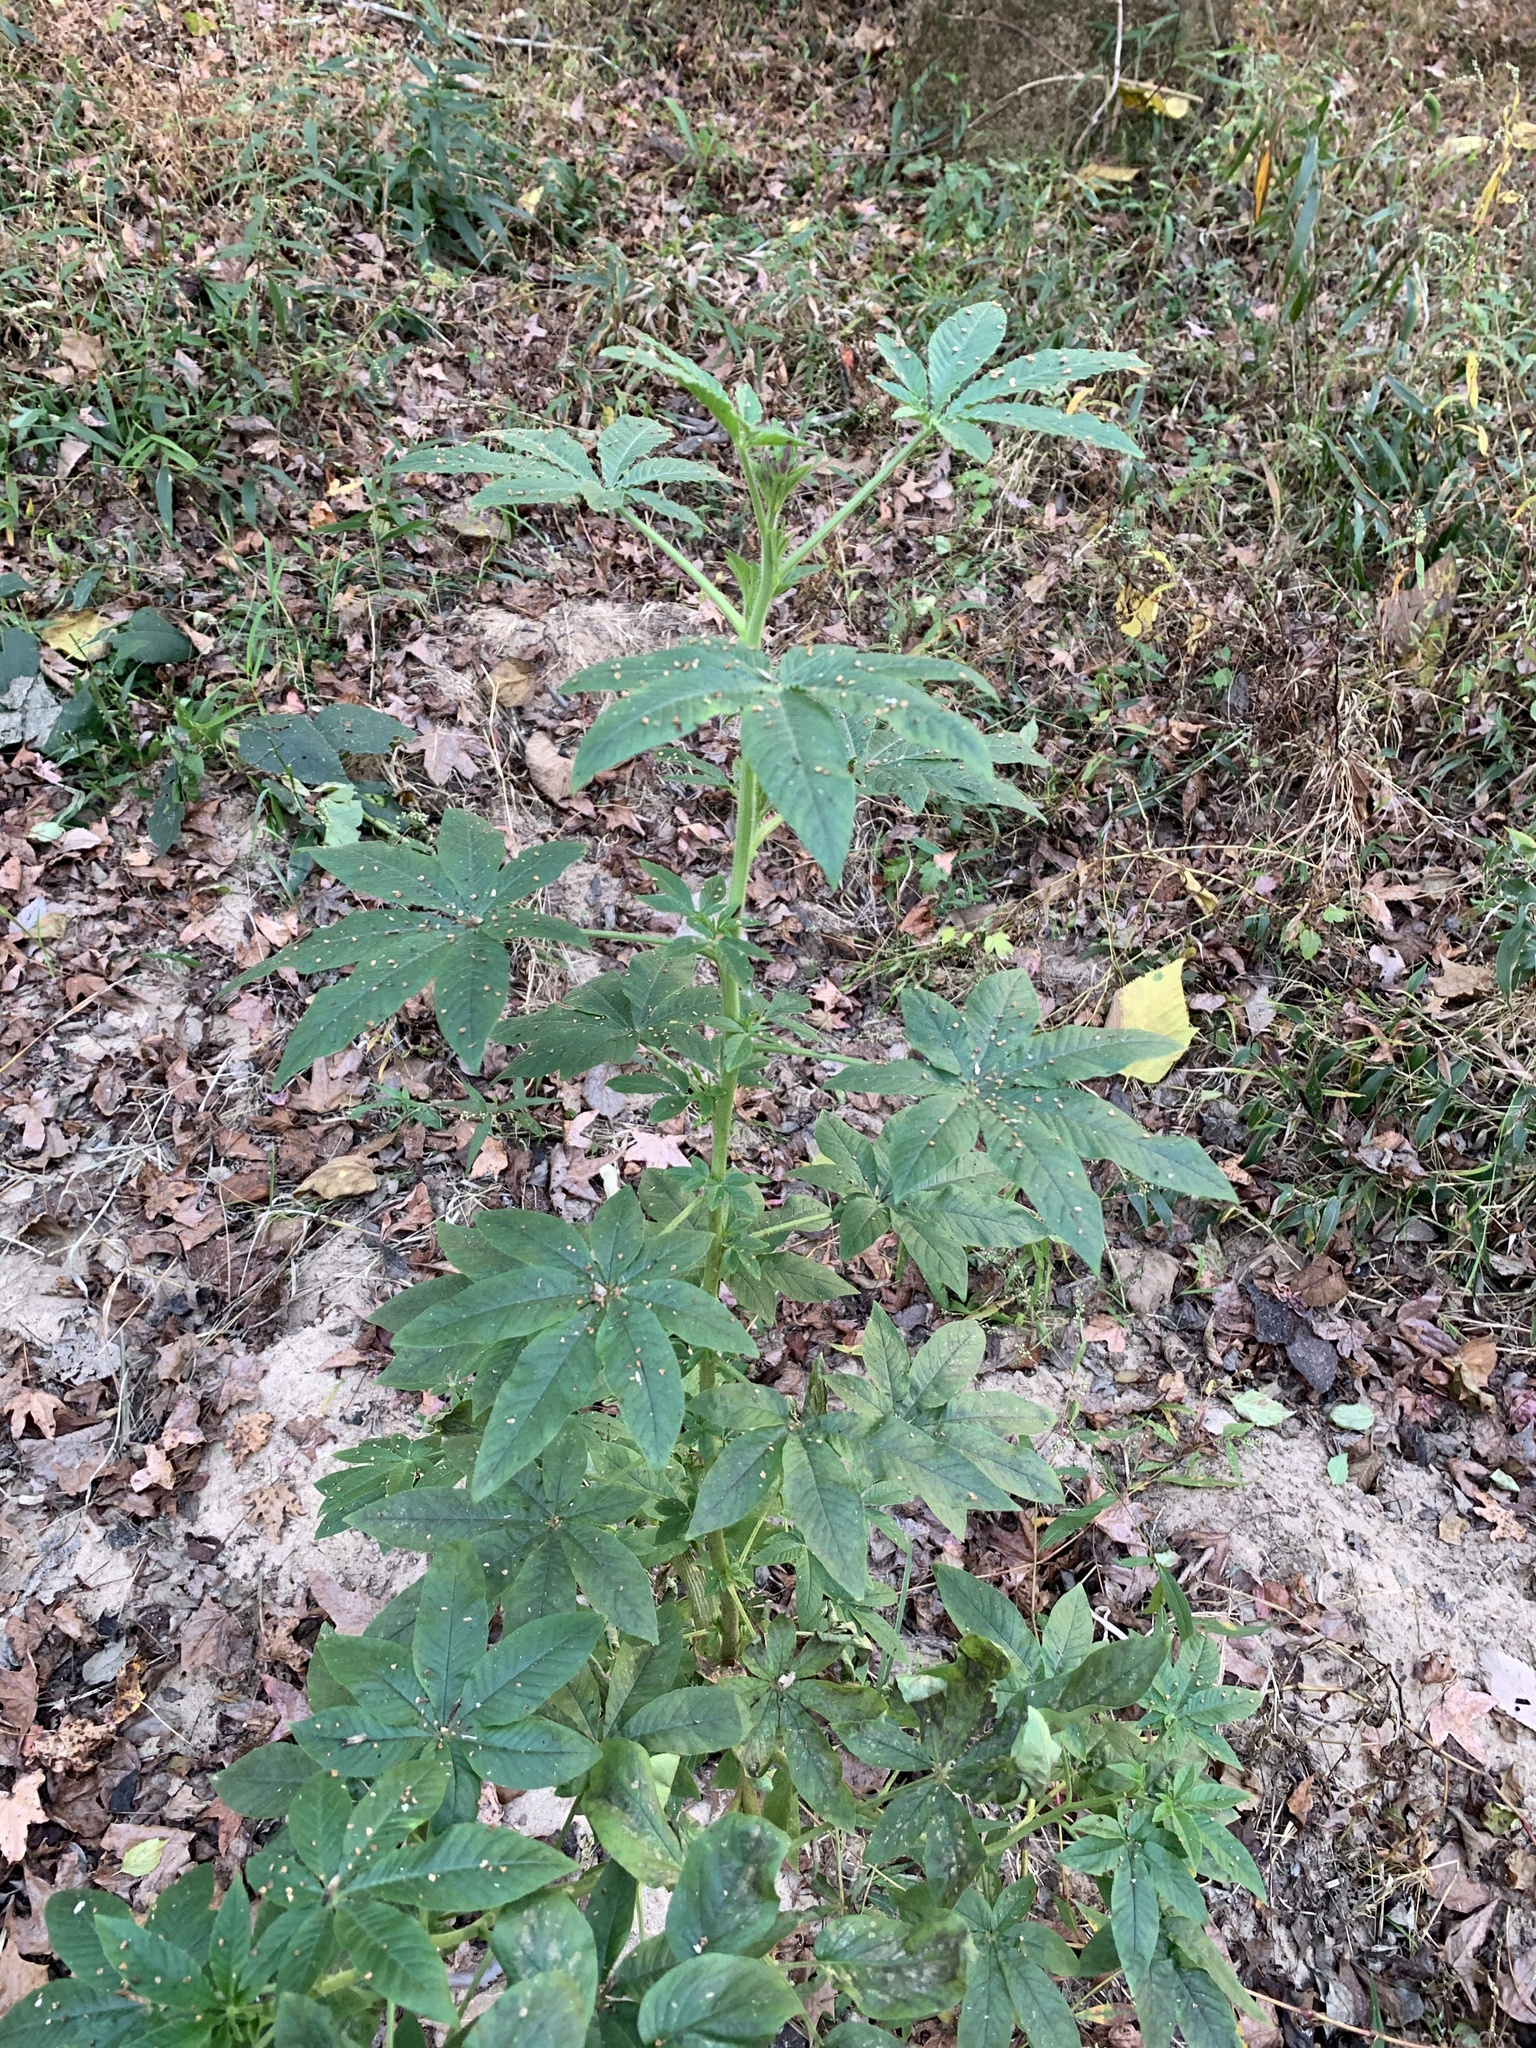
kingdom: Plantae
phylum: Tracheophyta
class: Magnoliopsida
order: Brassicales
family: Cleomaceae
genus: Tarenaya
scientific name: Tarenaya houtteana
